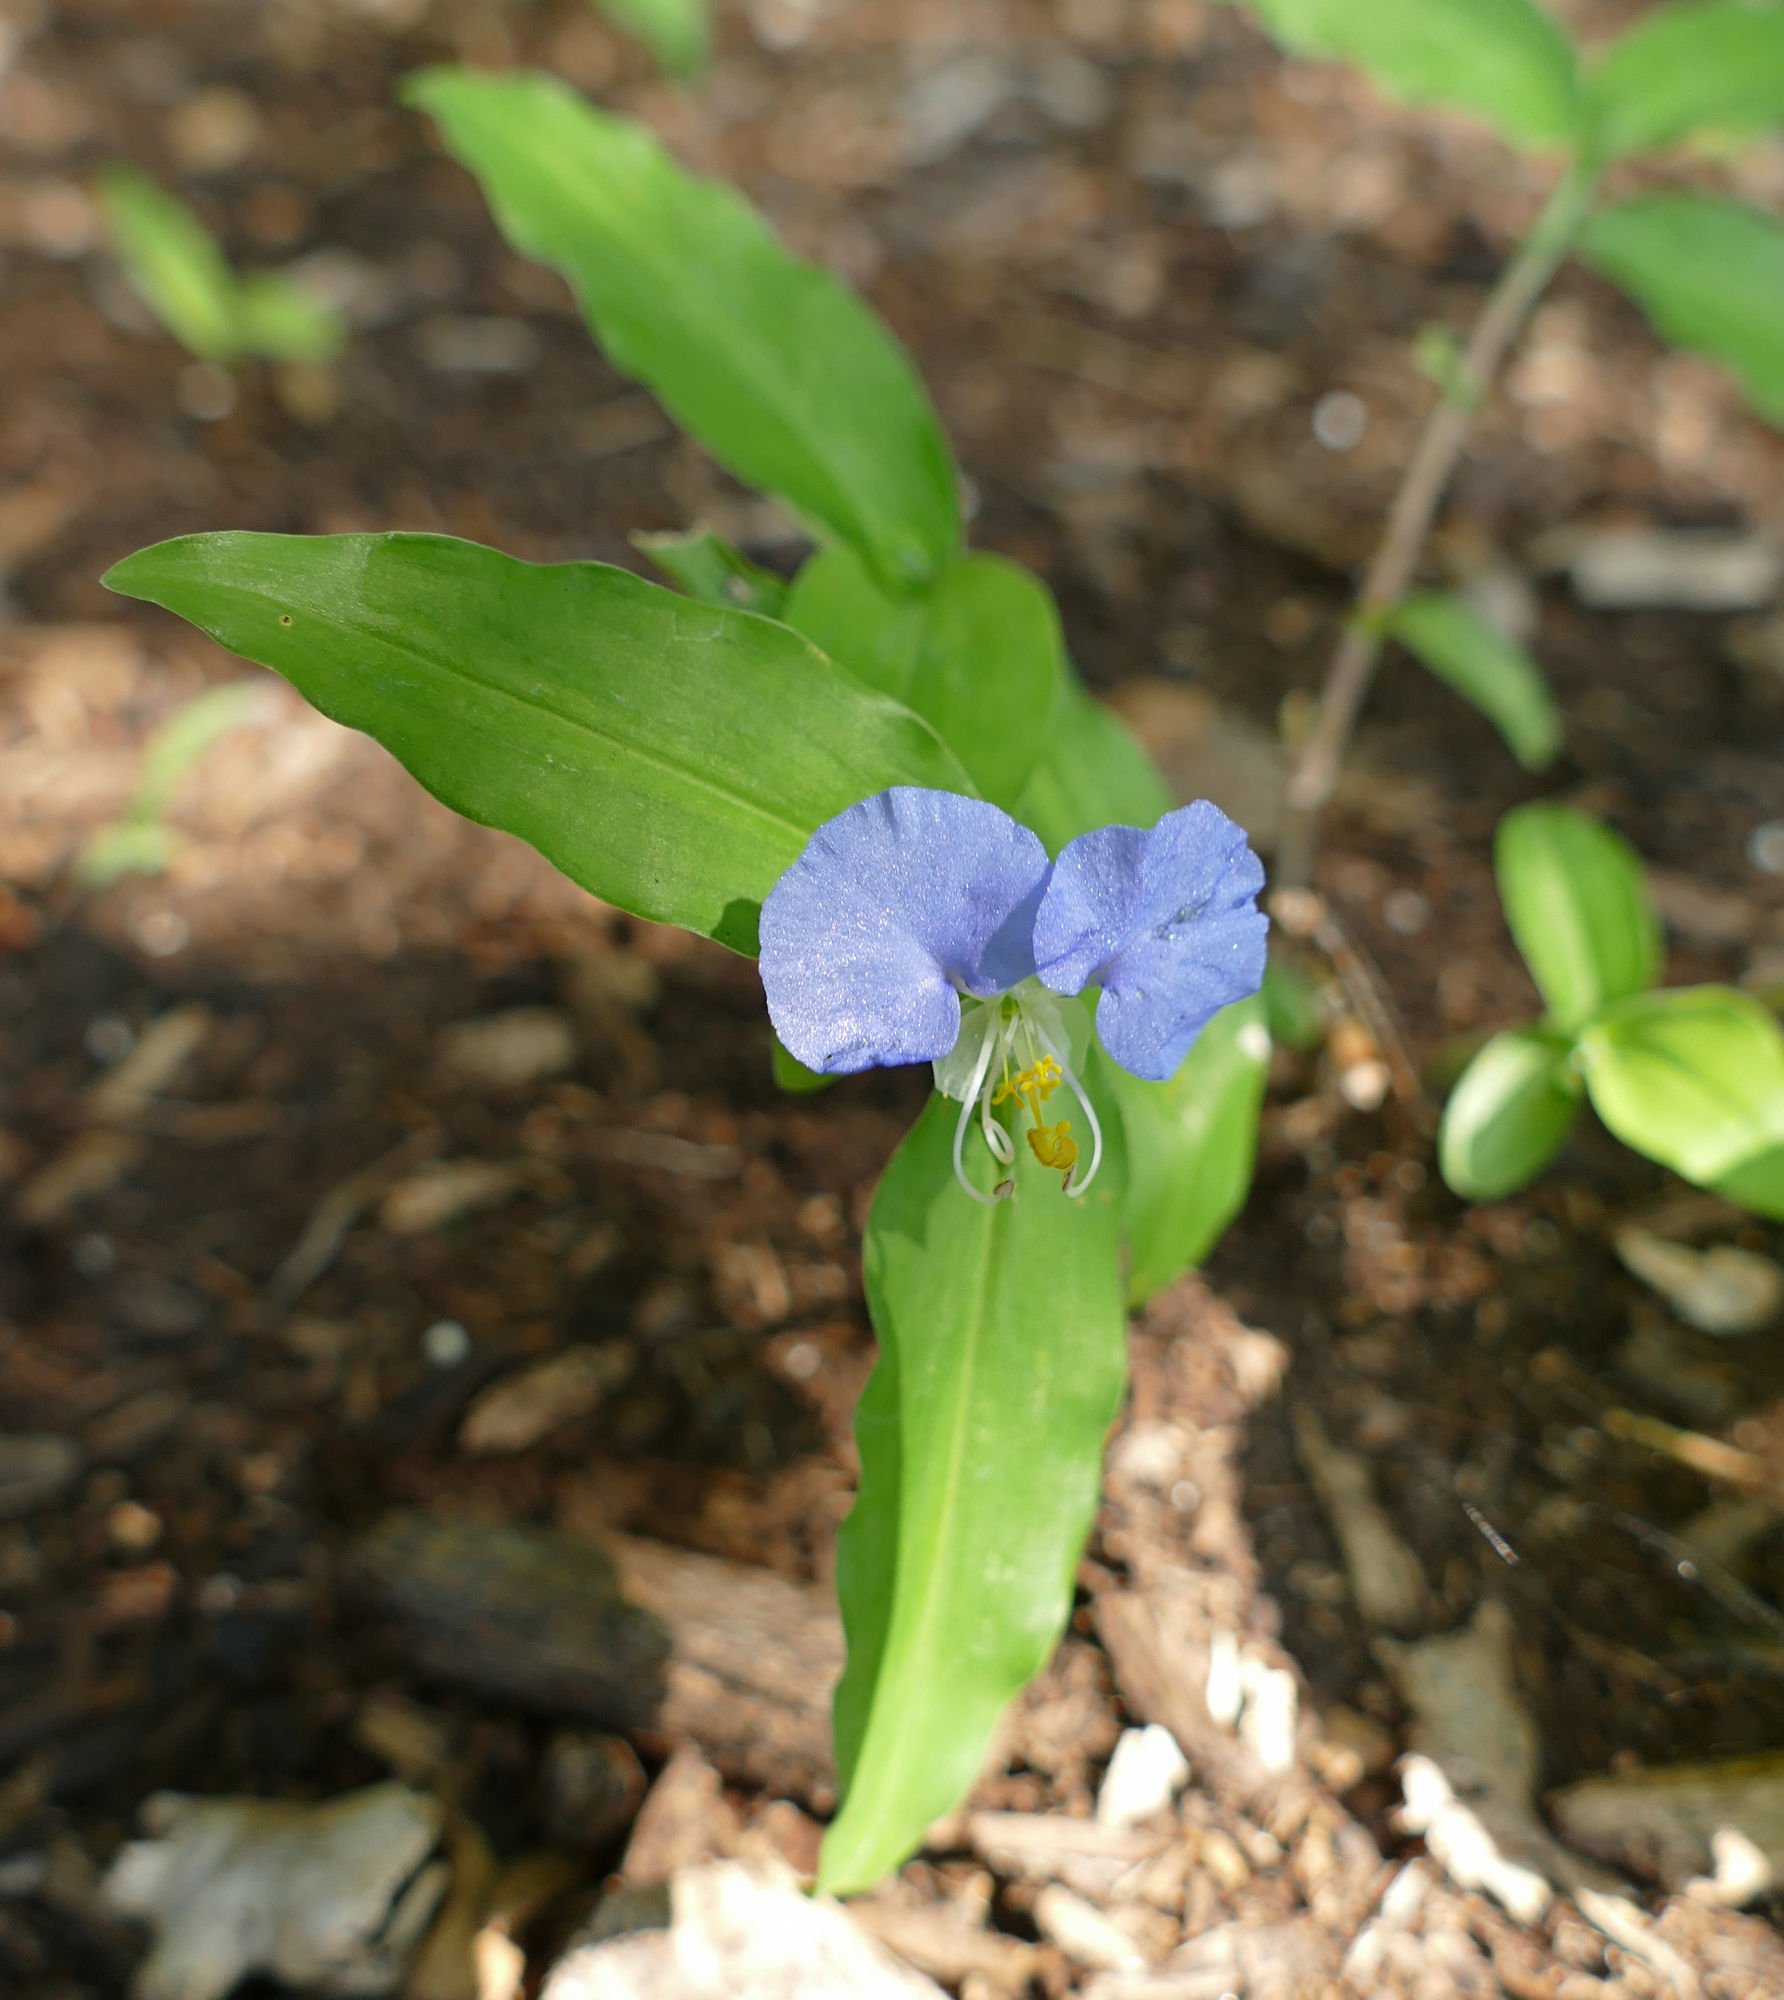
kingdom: Plantae
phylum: Tracheophyta
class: Liliopsida
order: Commelinales
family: Commelinaceae
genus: Commelina
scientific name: Commelina erecta
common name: Blousel blommetjie
